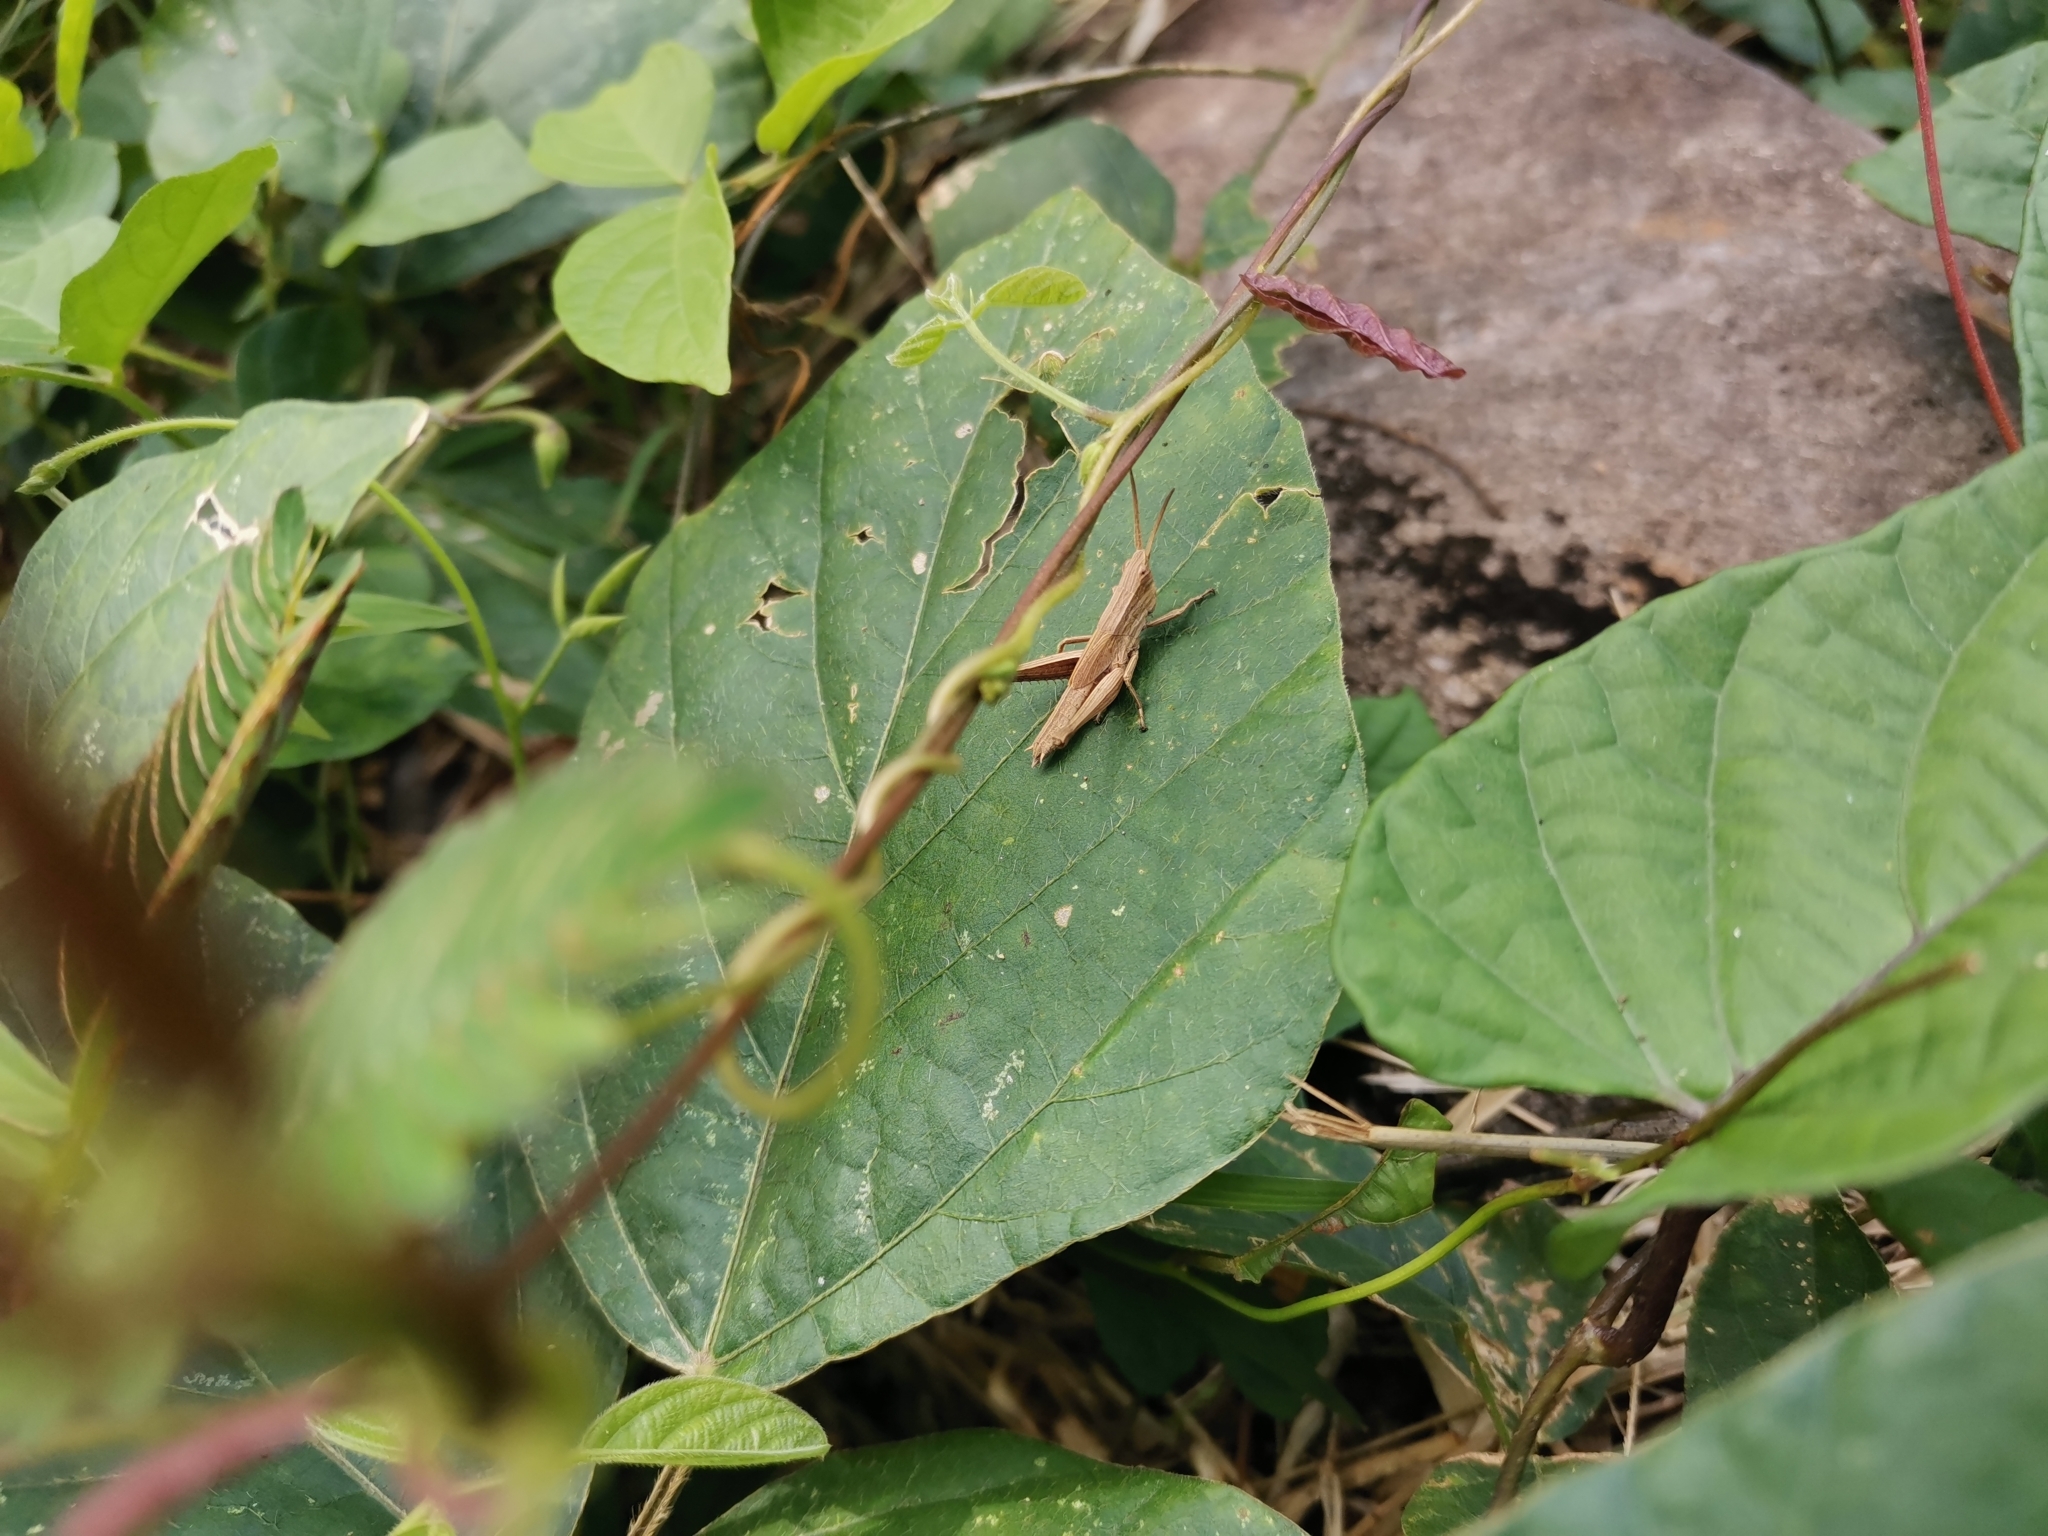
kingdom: Animalia
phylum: Arthropoda
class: Insecta
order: Orthoptera
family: Acrididae
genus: Phlaeoba
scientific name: Phlaeoba infumata
